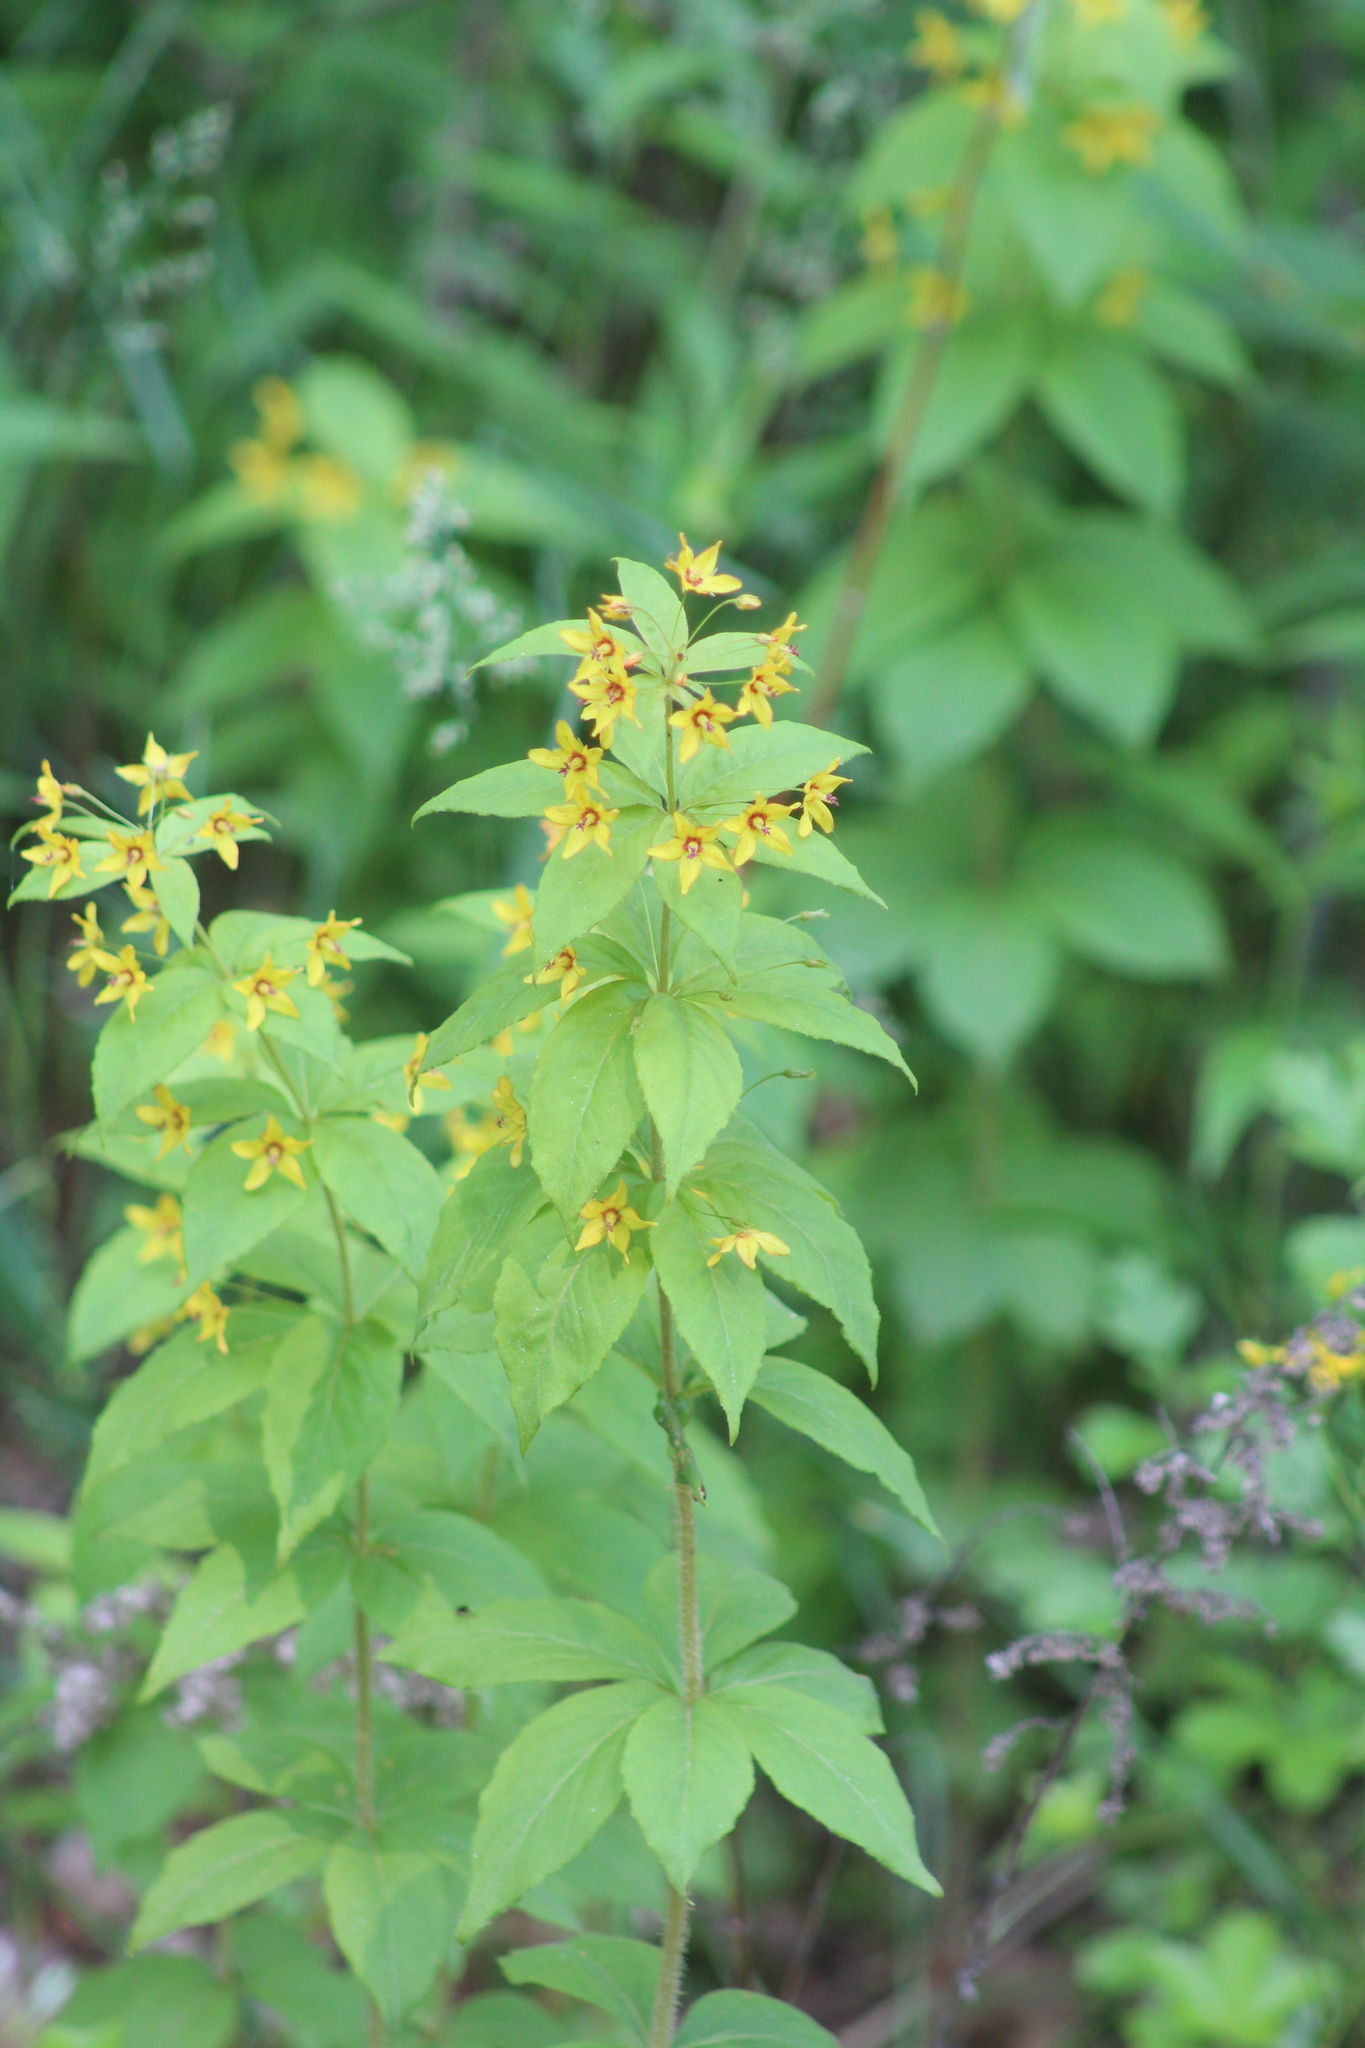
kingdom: Plantae
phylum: Tracheophyta
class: Magnoliopsida
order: Ericales
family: Primulaceae
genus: Lysimachia
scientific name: Lysimachia quadrifolia
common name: Whorled loosestrife
